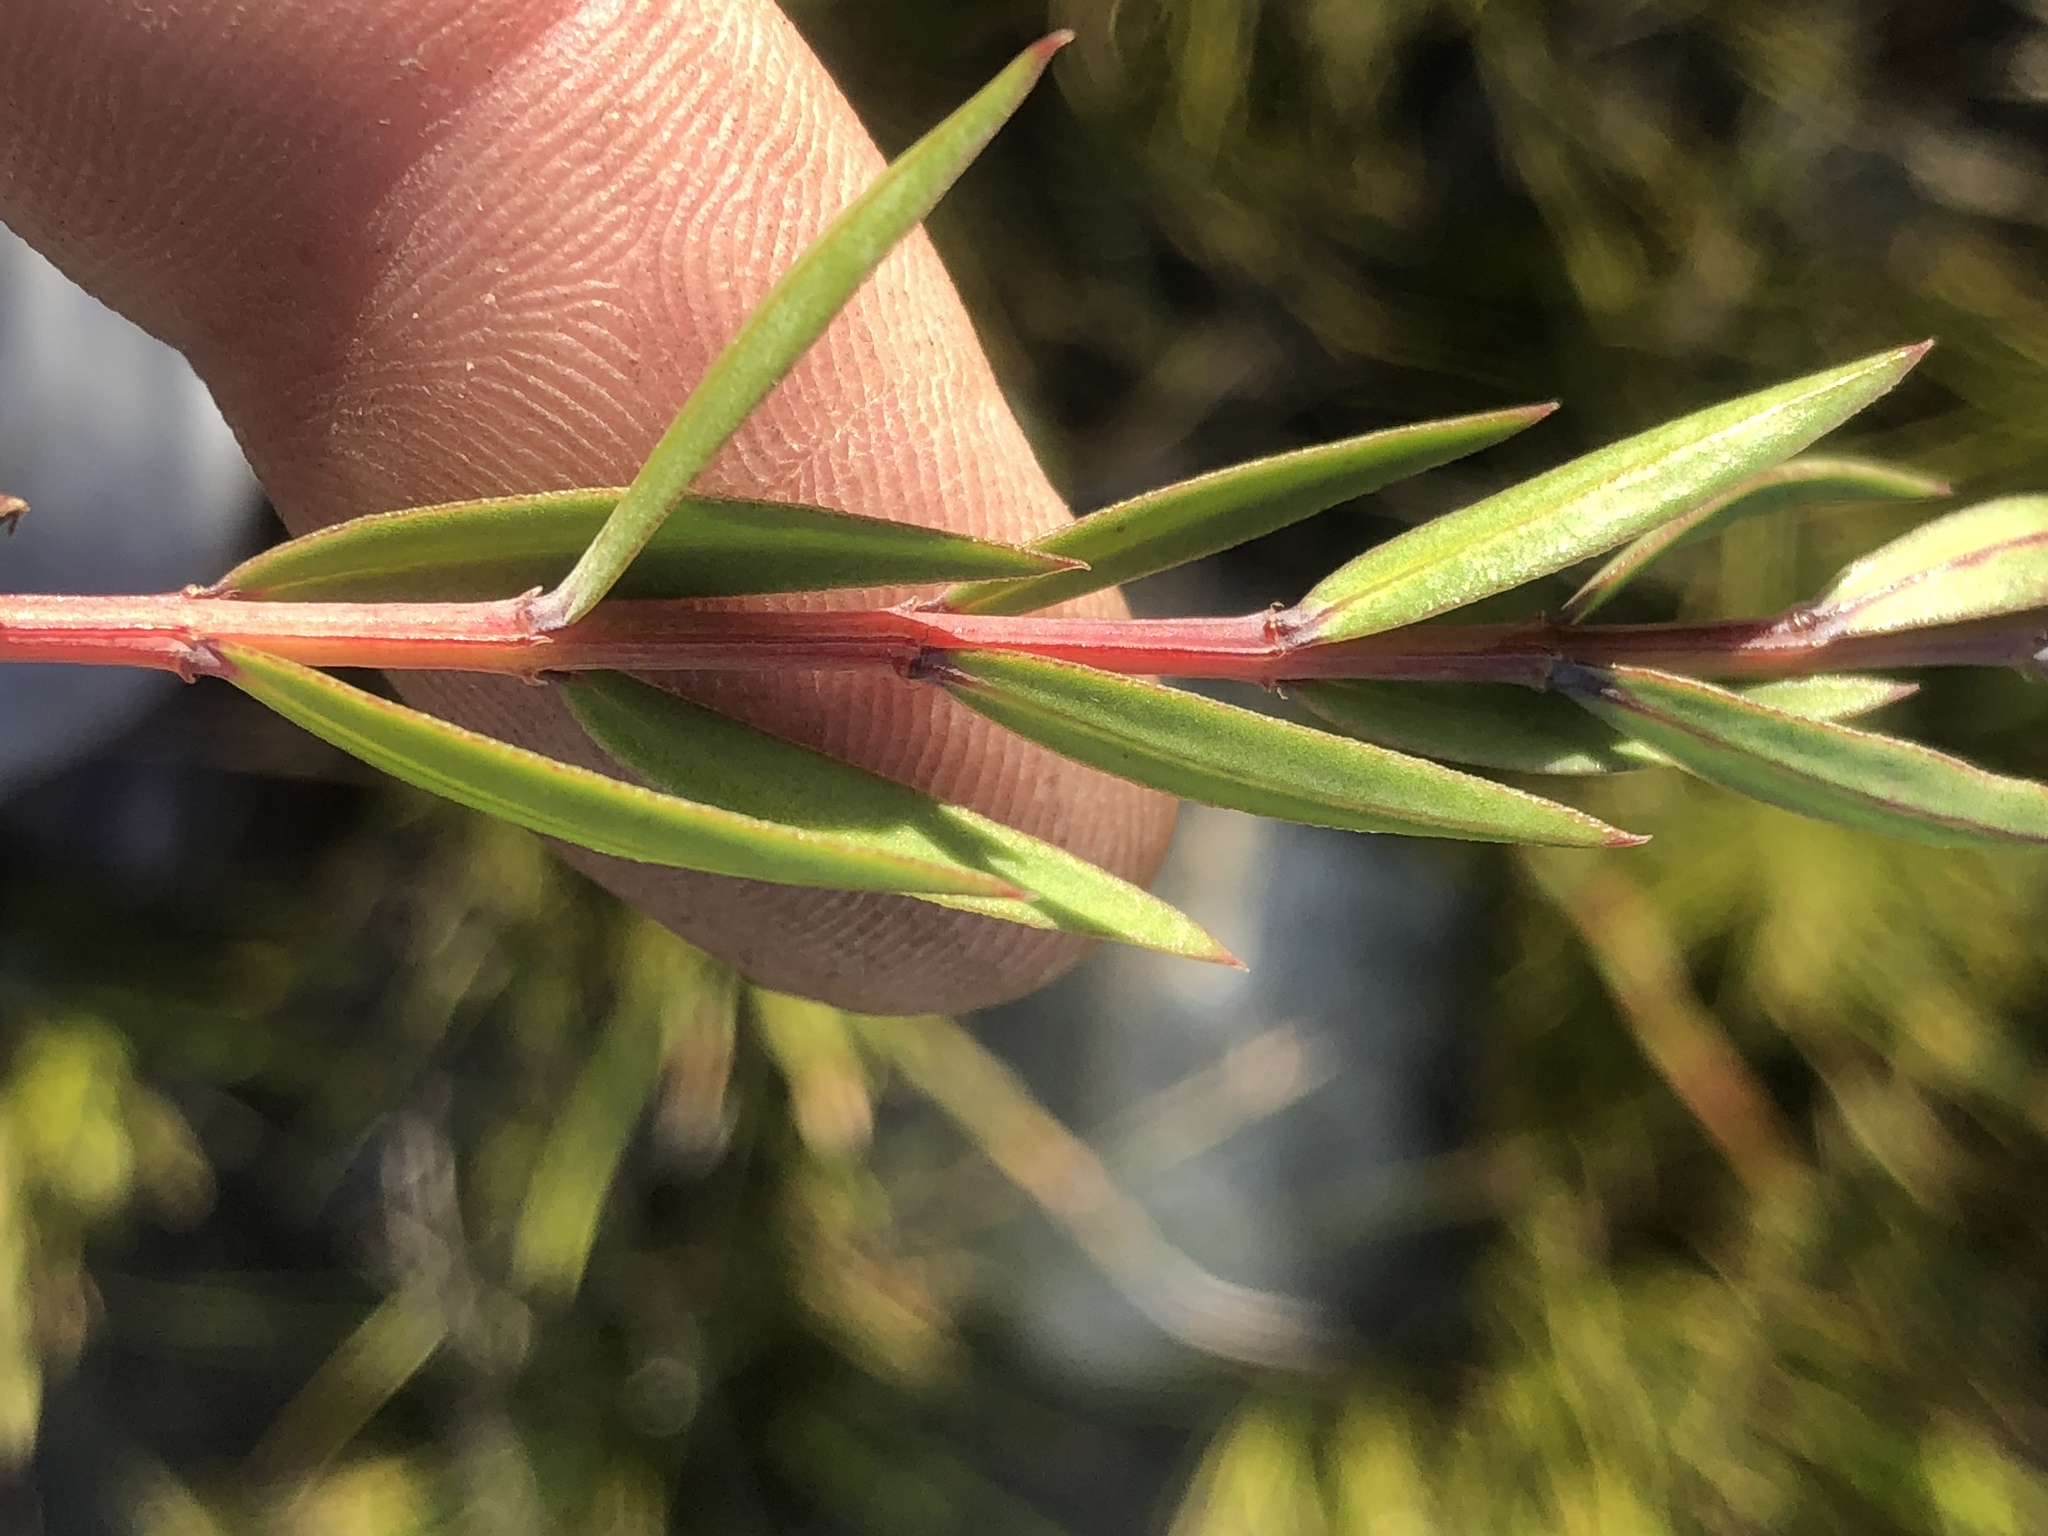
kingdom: Plantae
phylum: Tracheophyta
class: Magnoliopsida
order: Myrtales
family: Penaeaceae
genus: Penaea
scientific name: Penaea acutifolia
